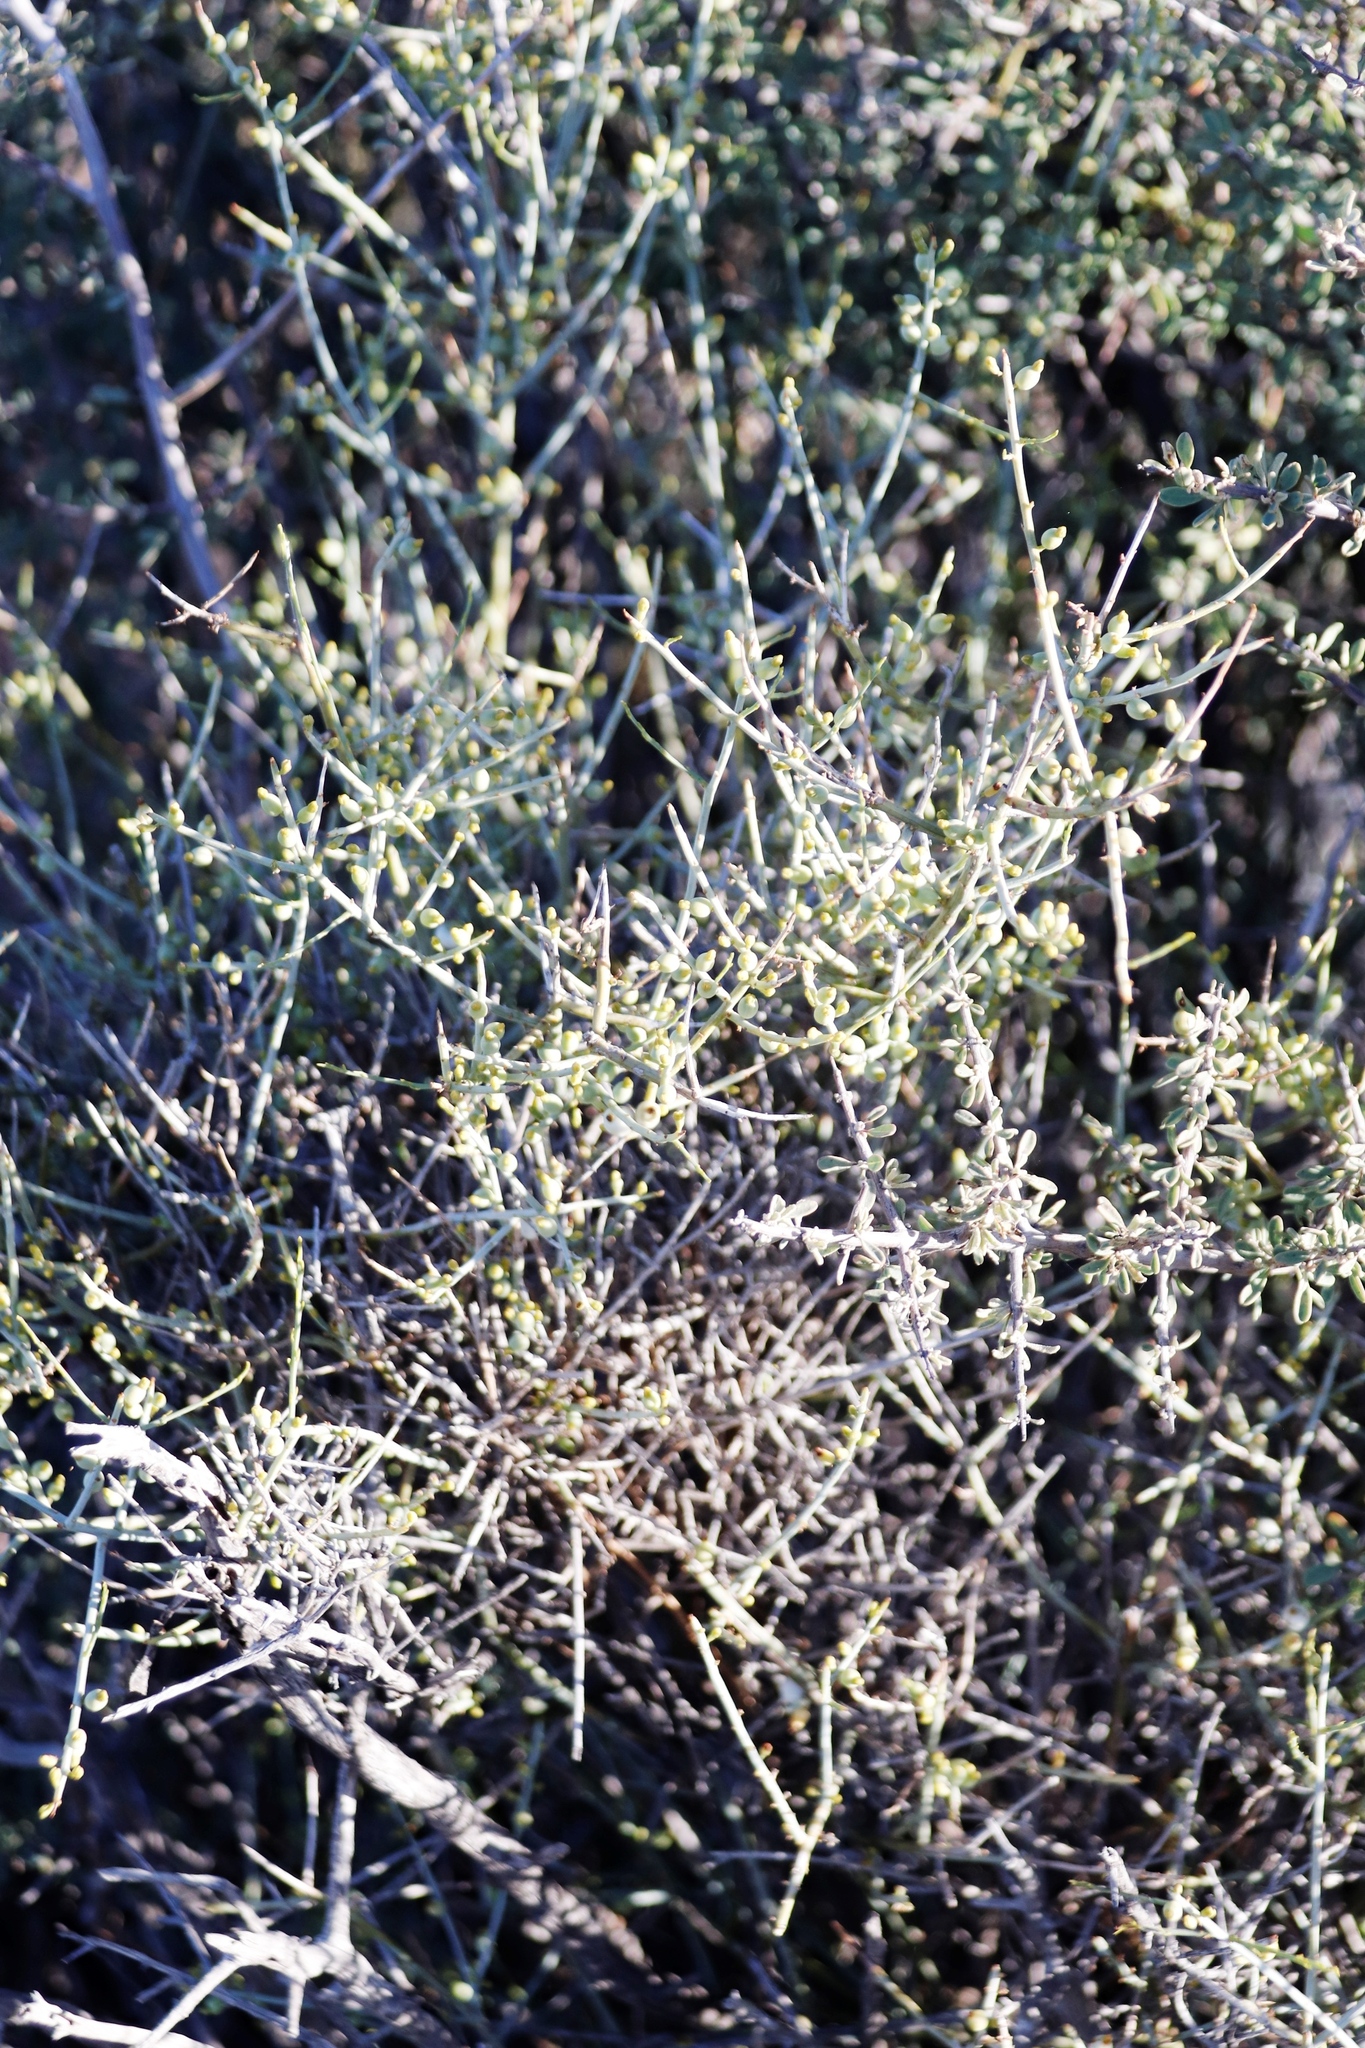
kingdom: Plantae
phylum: Tracheophyta
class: Magnoliopsida
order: Santalales
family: Thesiaceae
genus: Lacomucinaea
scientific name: Lacomucinaea lineata
